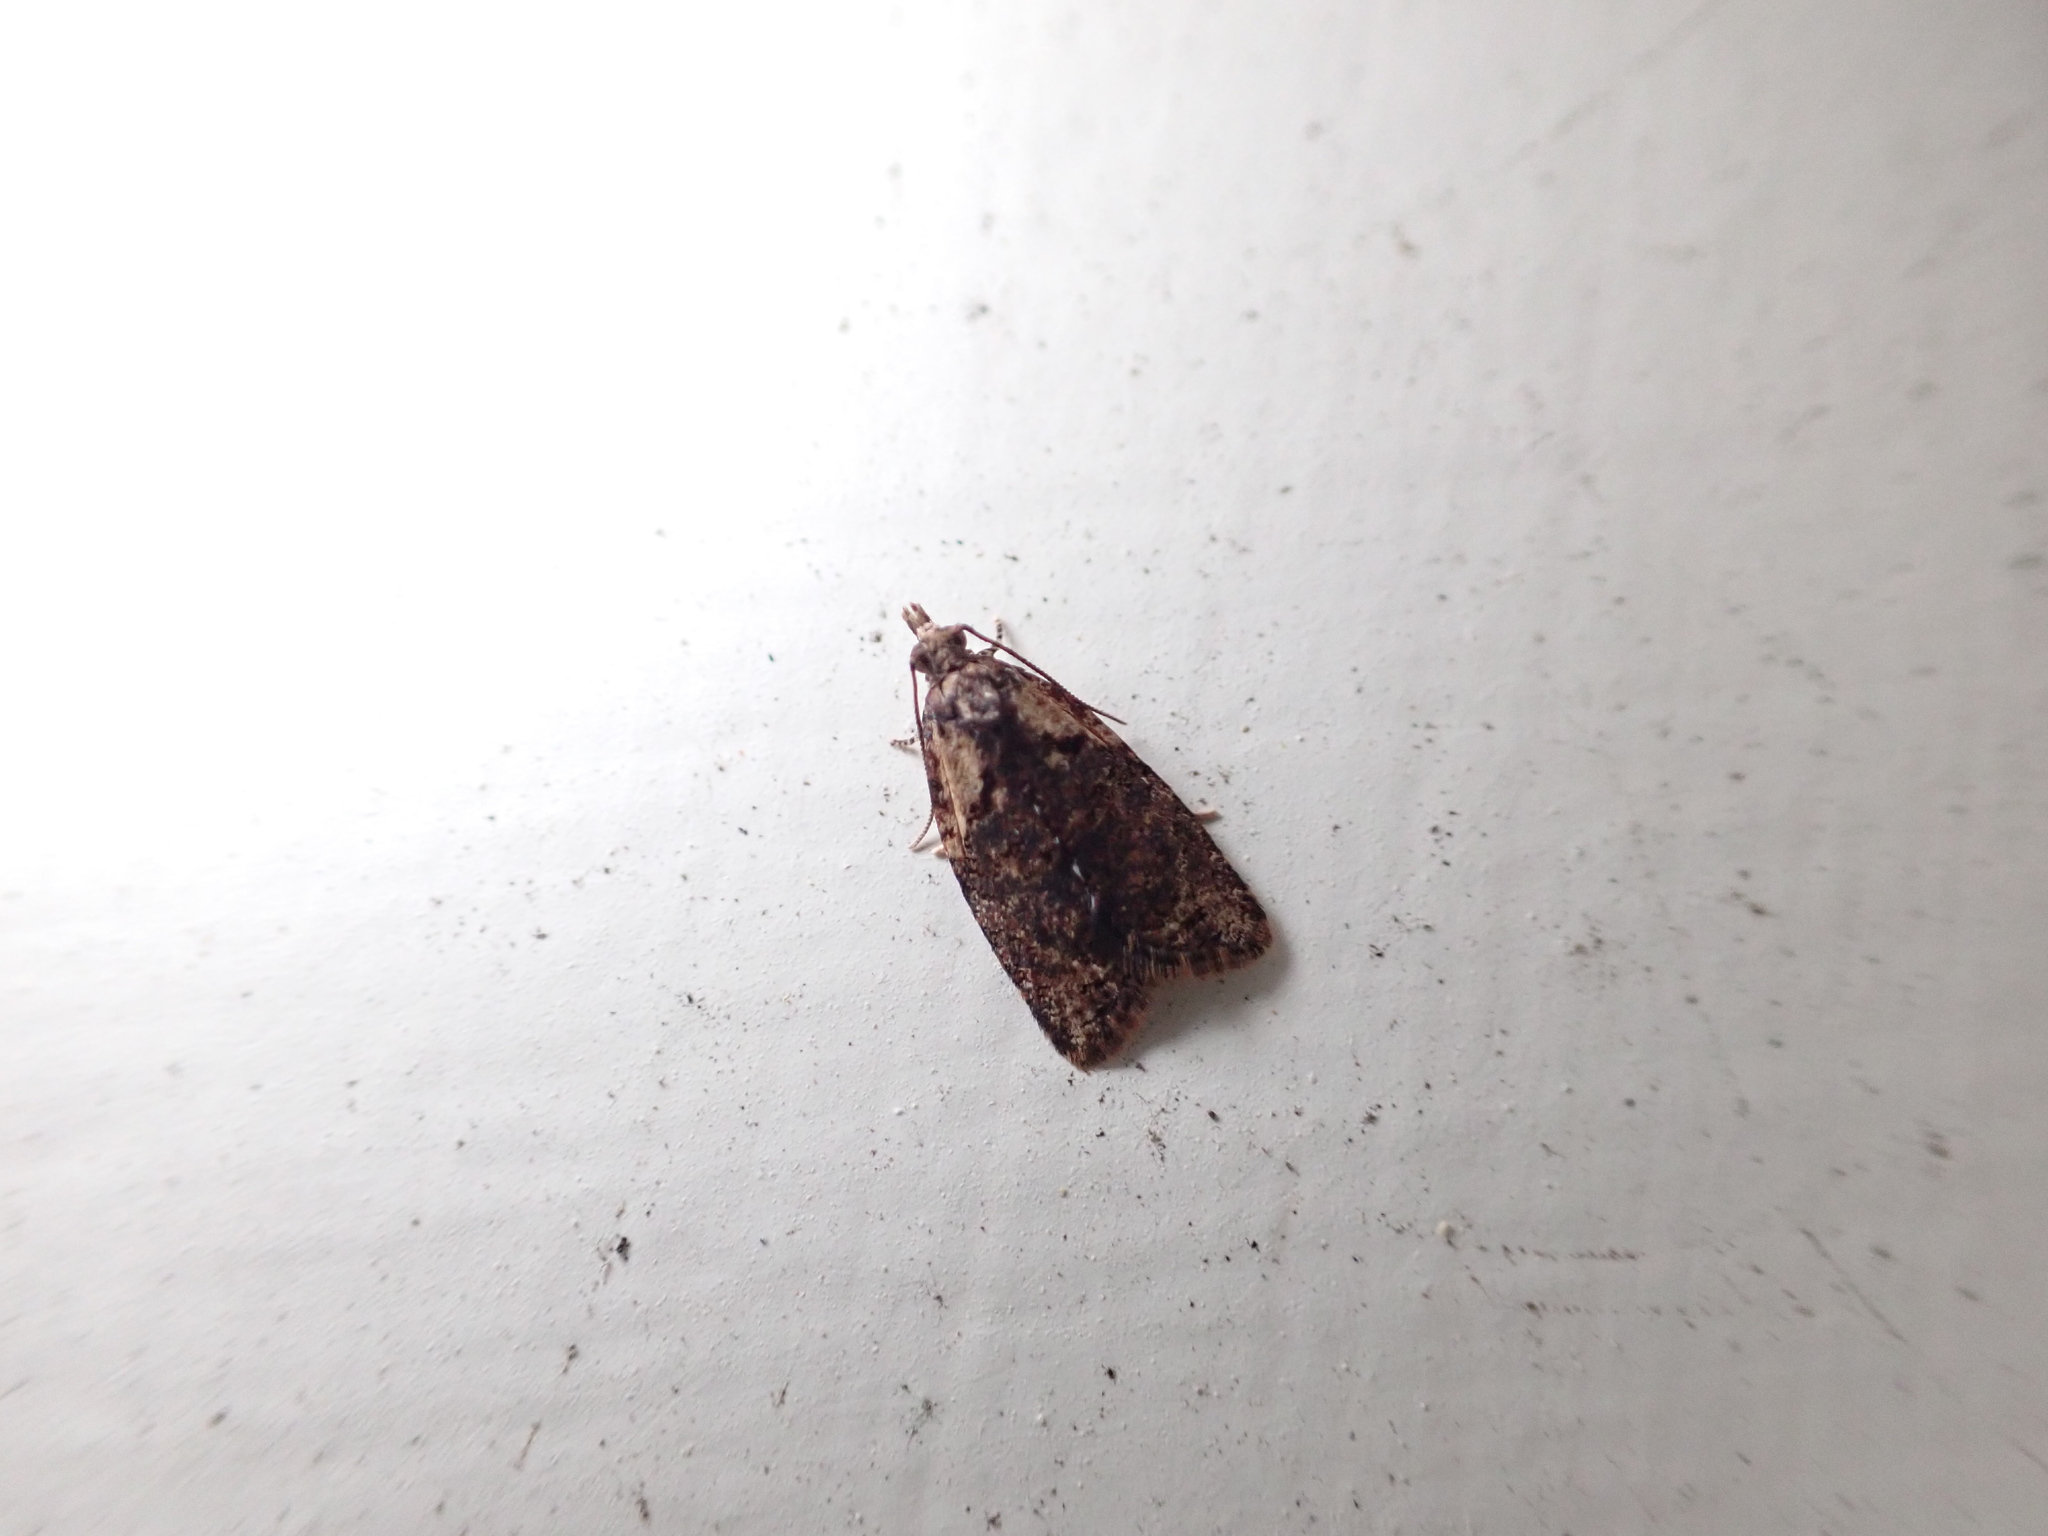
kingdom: Animalia
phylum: Arthropoda
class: Insecta
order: Lepidoptera
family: Tortricidae
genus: Capua
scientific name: Capua intractana
